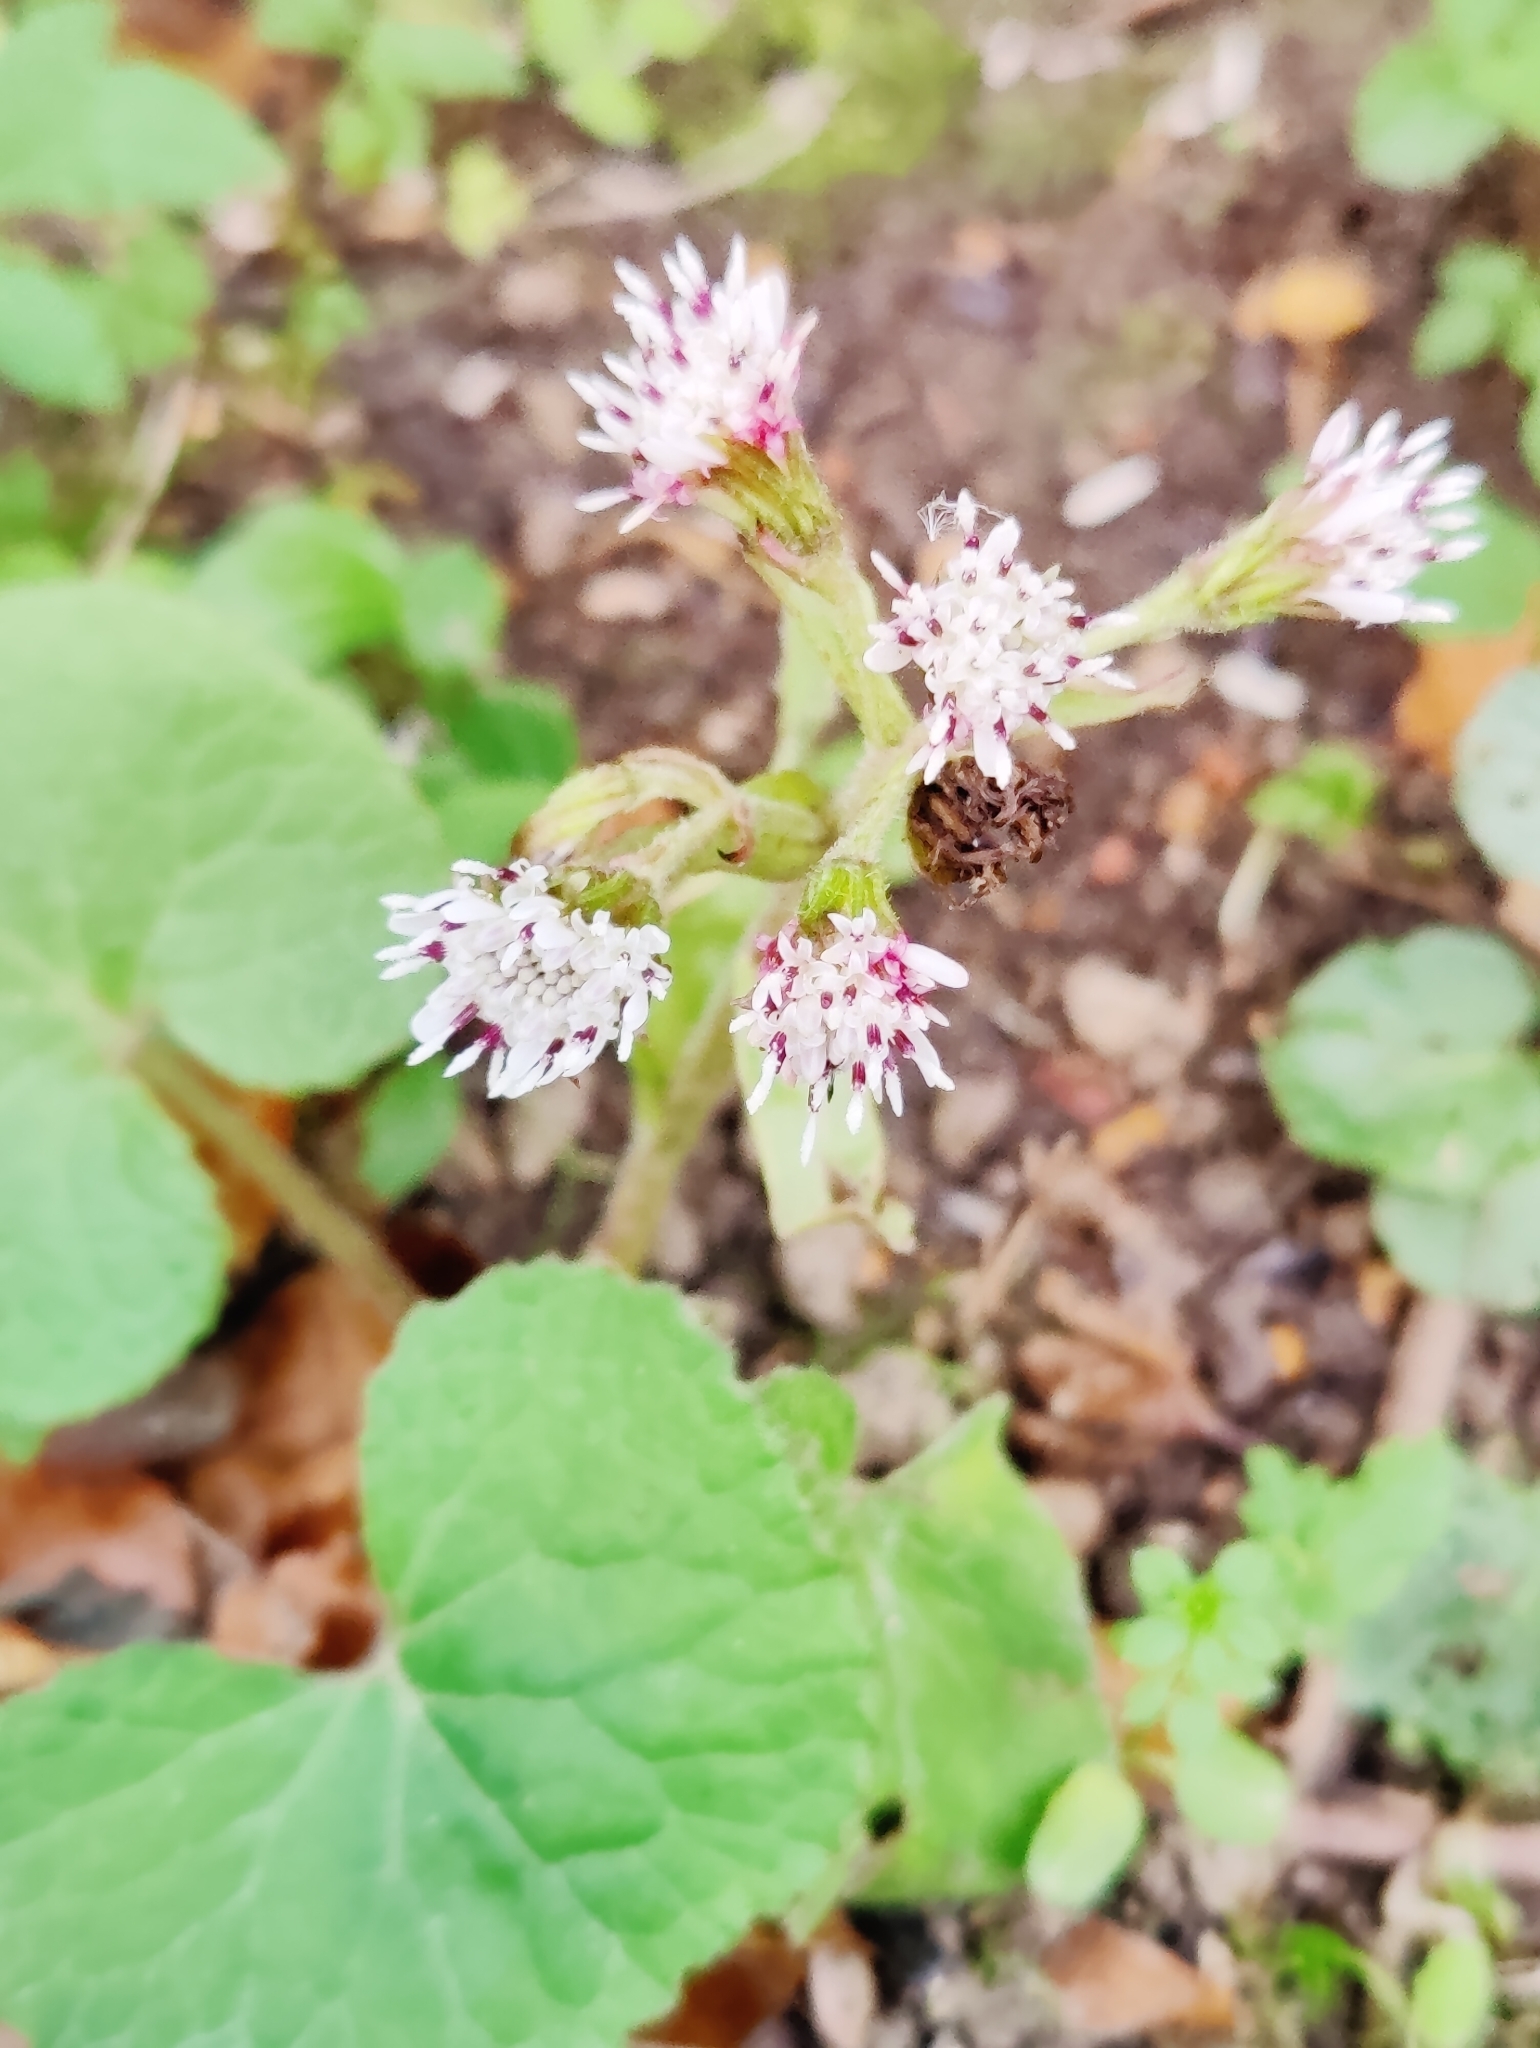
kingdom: Plantae
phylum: Tracheophyta
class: Magnoliopsida
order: Asterales
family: Asteraceae
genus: Petasites
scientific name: Petasites pyrenaicus
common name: Winter heliotrope
